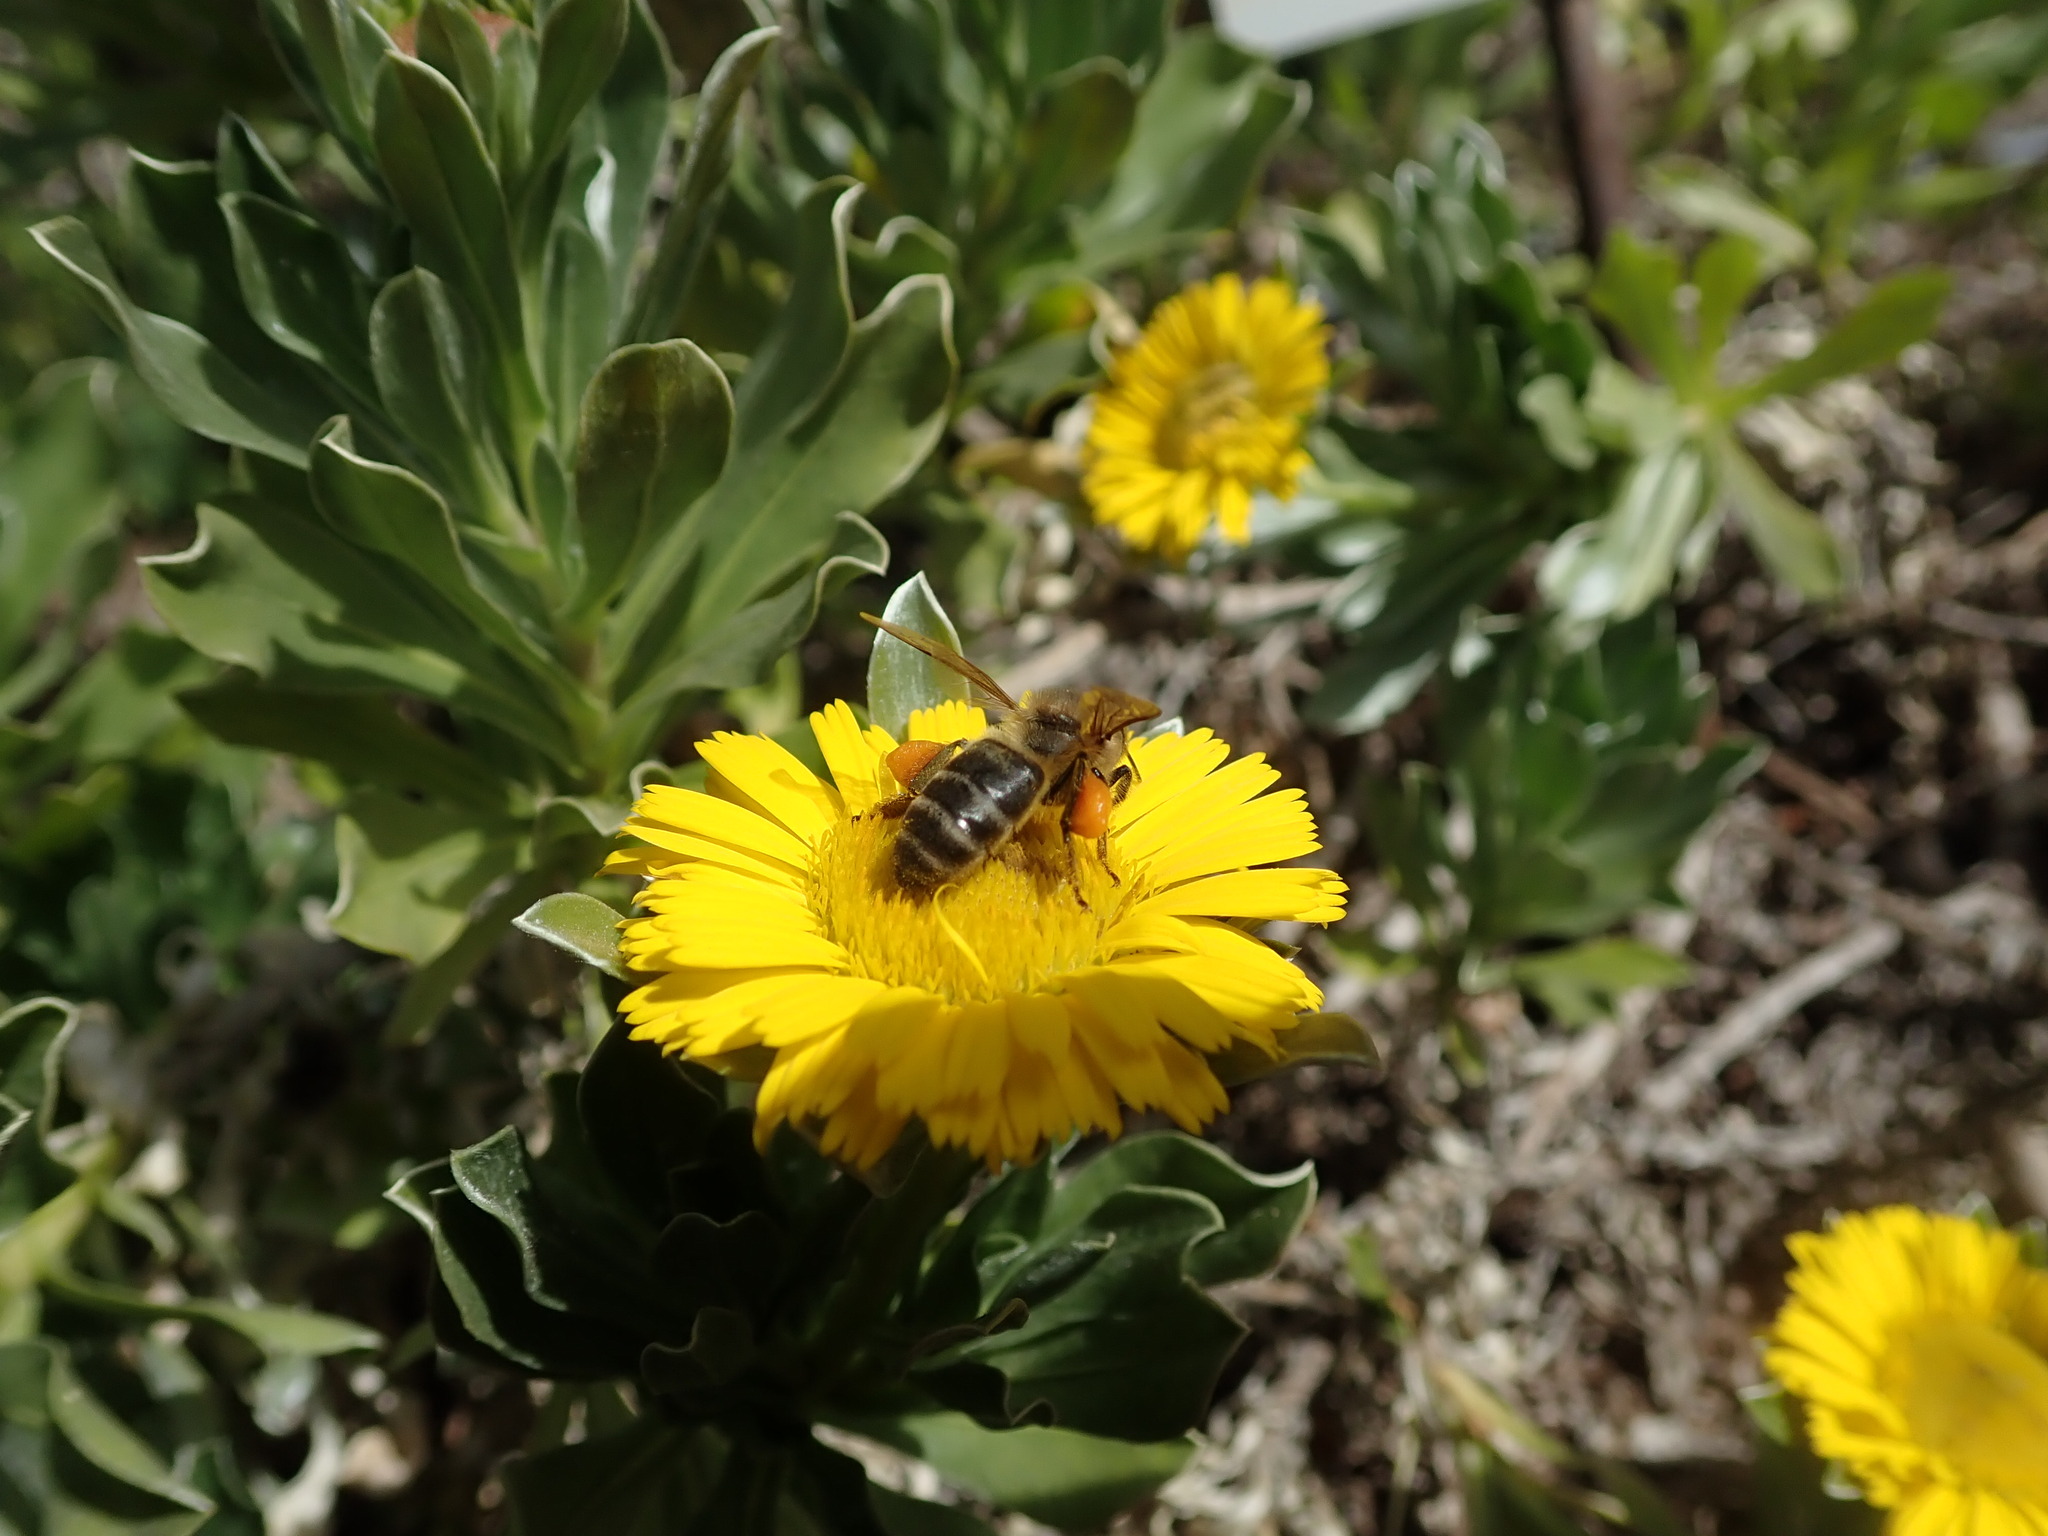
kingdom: Animalia
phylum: Arthropoda
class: Insecta
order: Hymenoptera
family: Apidae
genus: Apis
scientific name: Apis mellifera
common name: Honey bee
